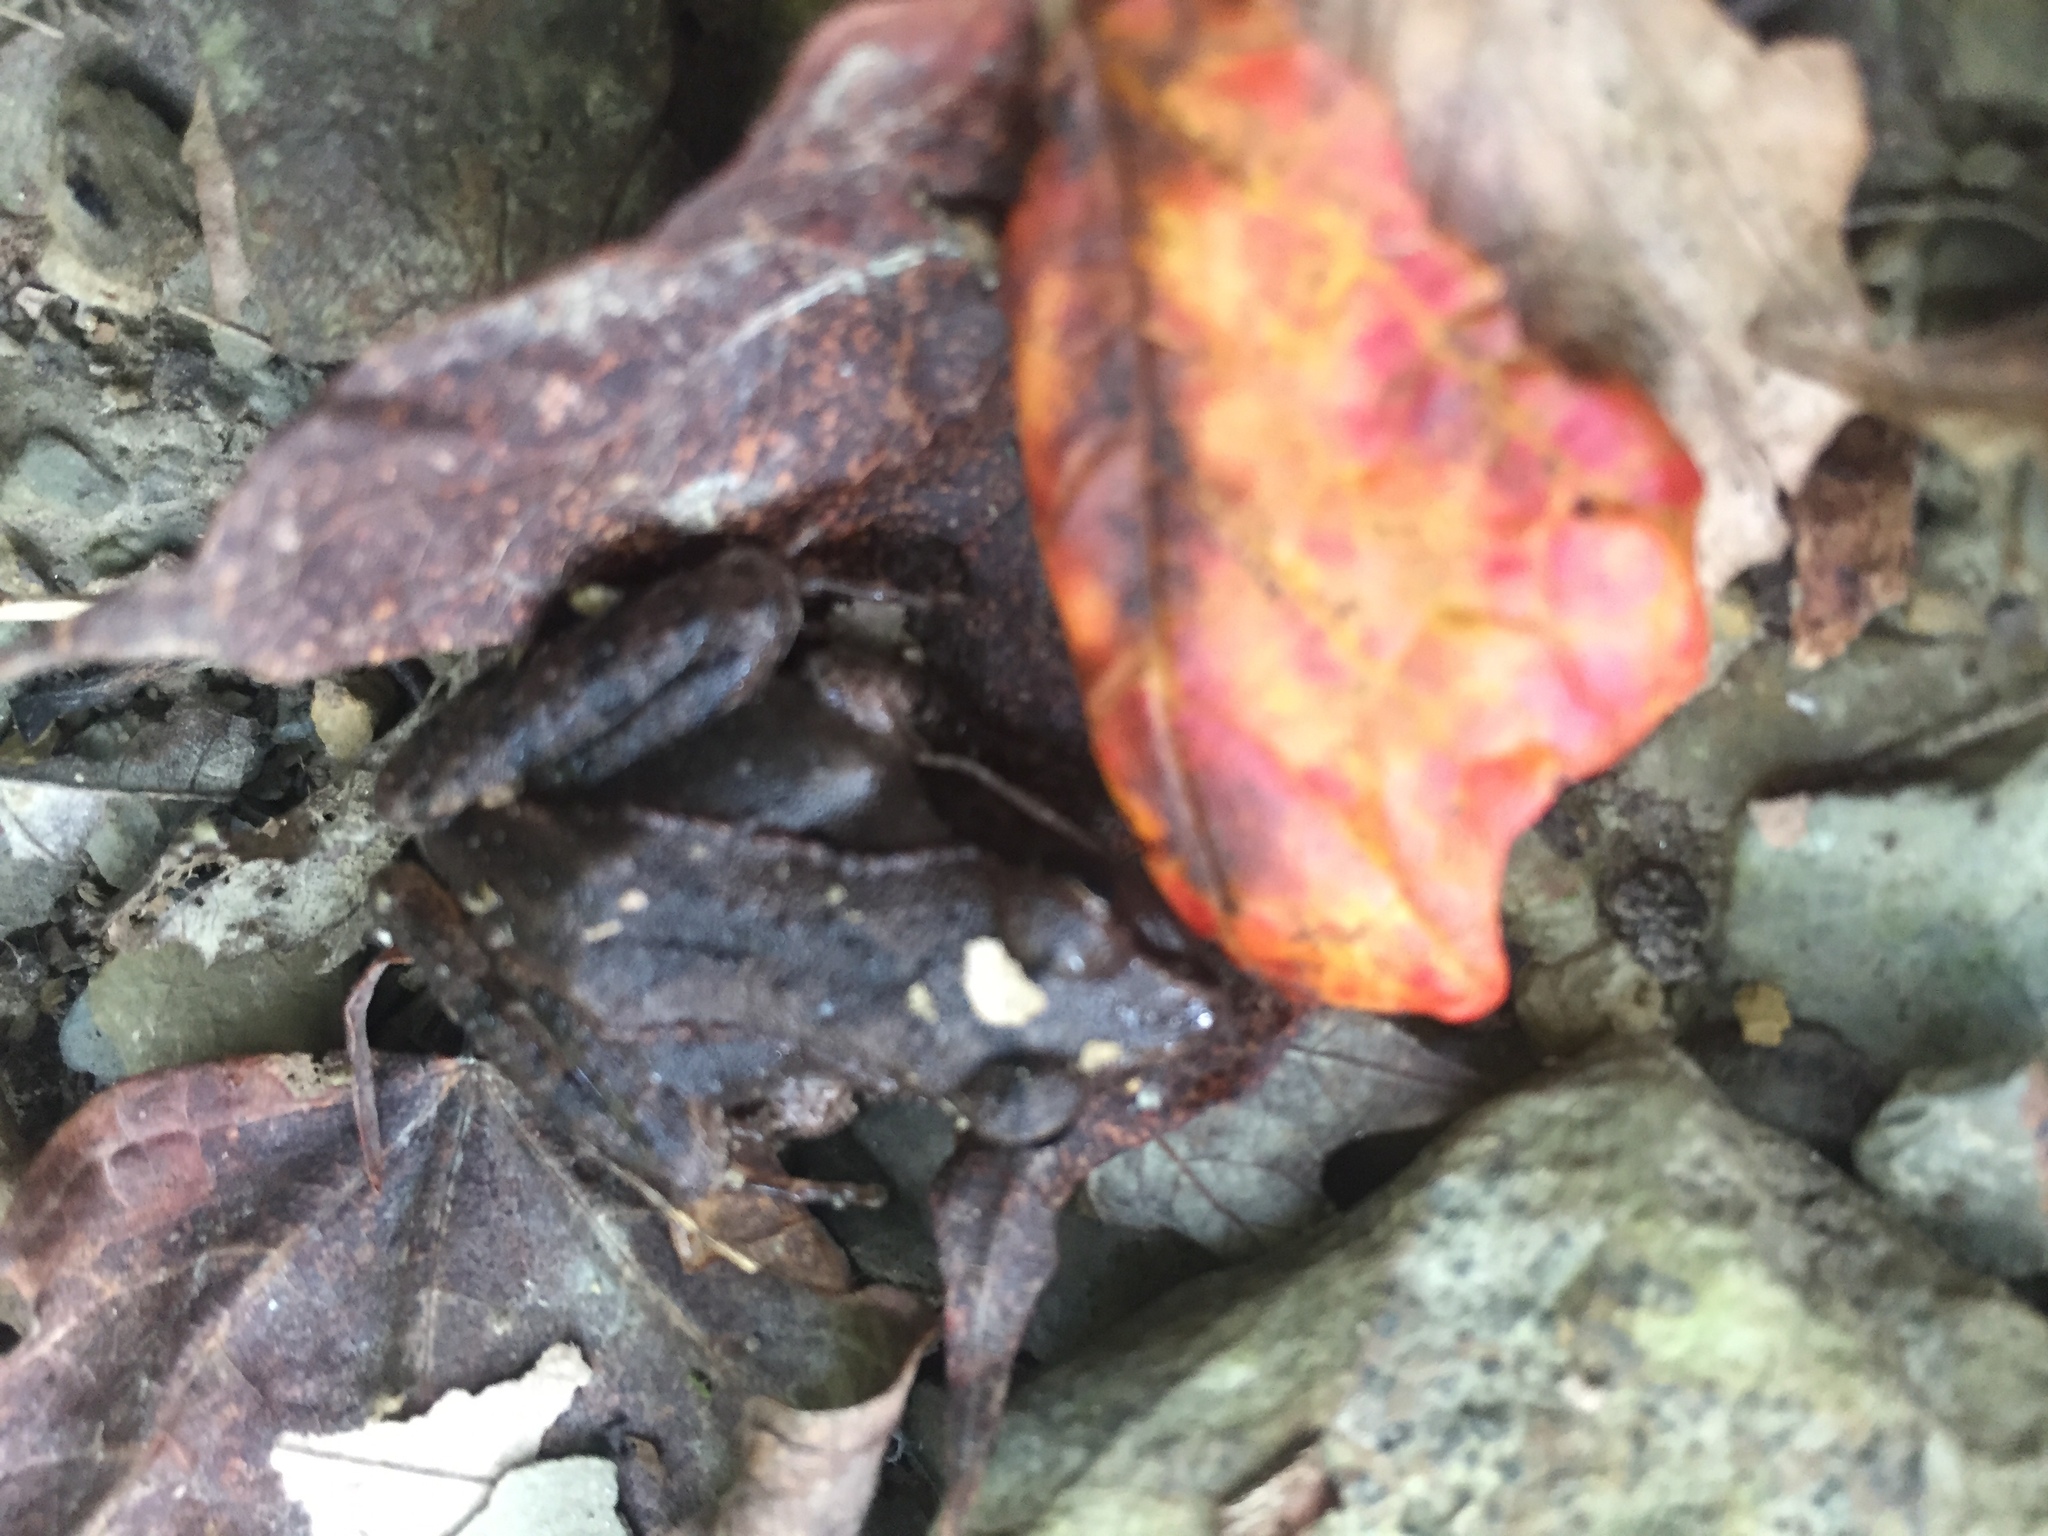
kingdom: Animalia
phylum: Chordata
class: Amphibia
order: Anura
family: Ranidae
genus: Lithobates
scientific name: Lithobates sylvaticus
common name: Wood frog
